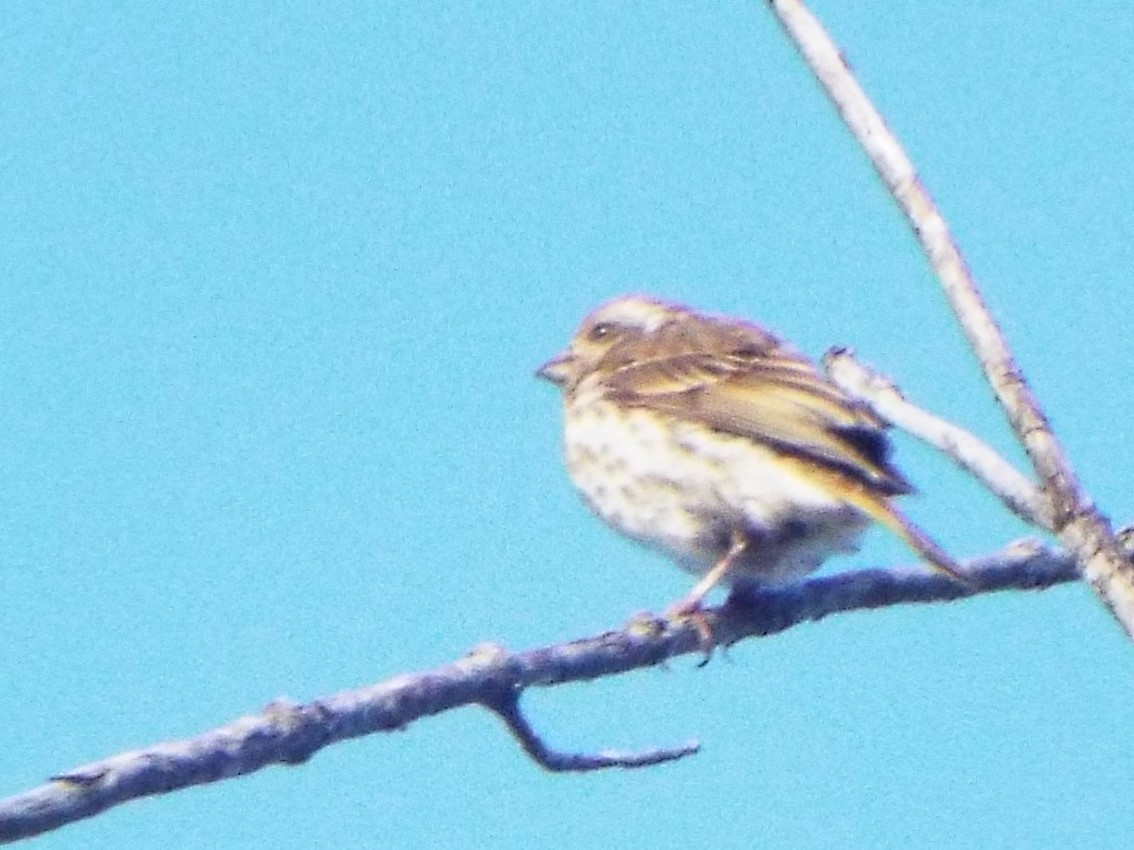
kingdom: Animalia
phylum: Chordata
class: Aves
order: Passeriformes
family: Fringillidae
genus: Haemorhous
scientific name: Haemorhous purpureus
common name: Purple finch
